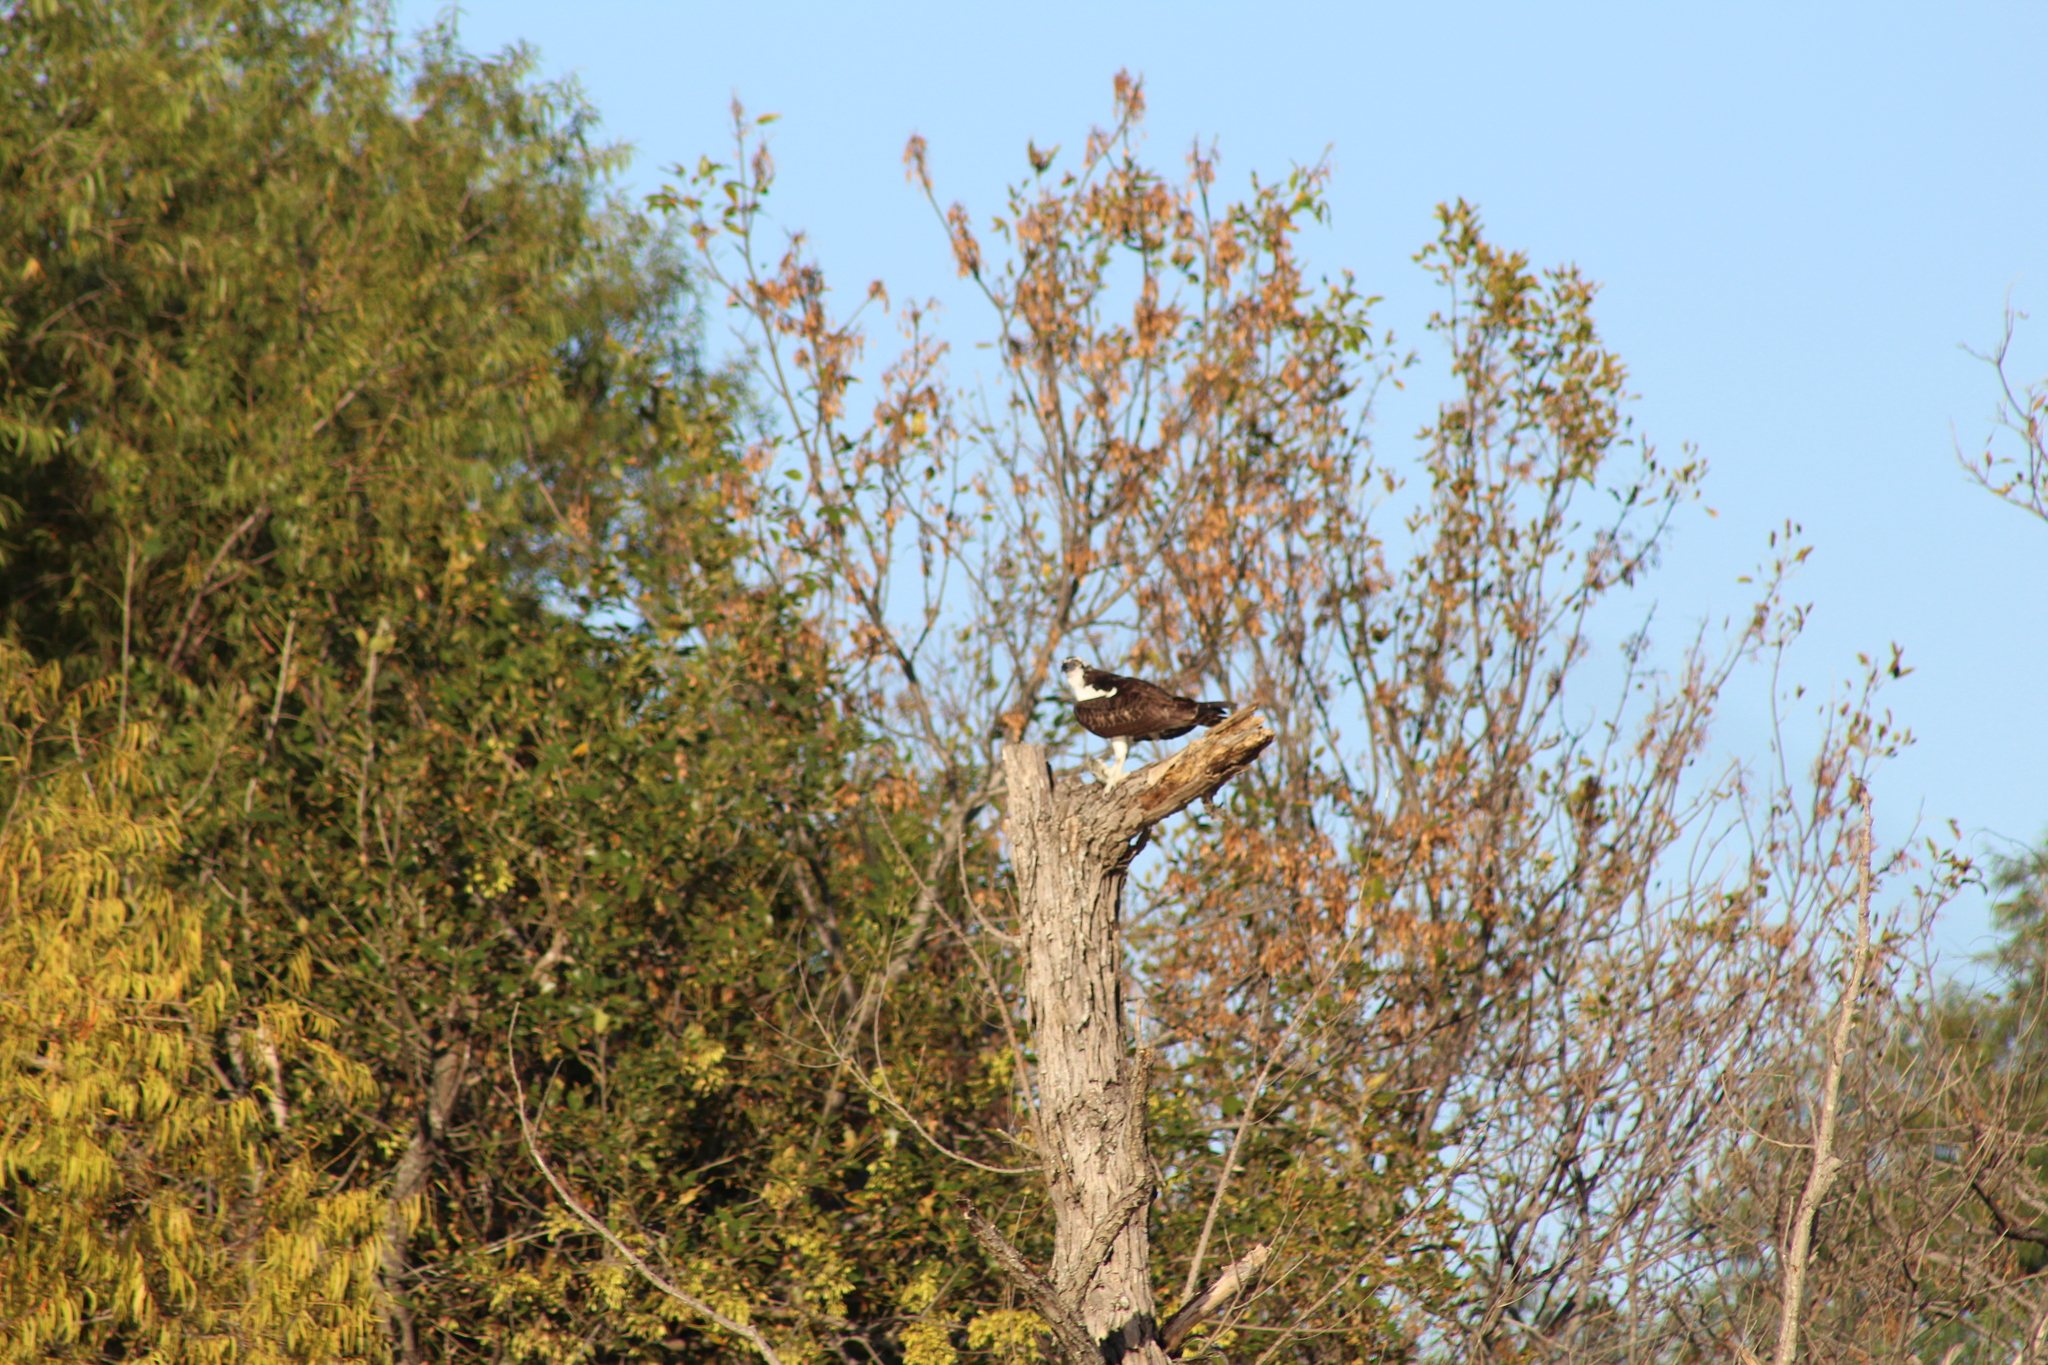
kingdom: Animalia
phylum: Chordata
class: Aves
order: Accipitriformes
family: Pandionidae
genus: Pandion
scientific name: Pandion haliaetus
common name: Osprey
